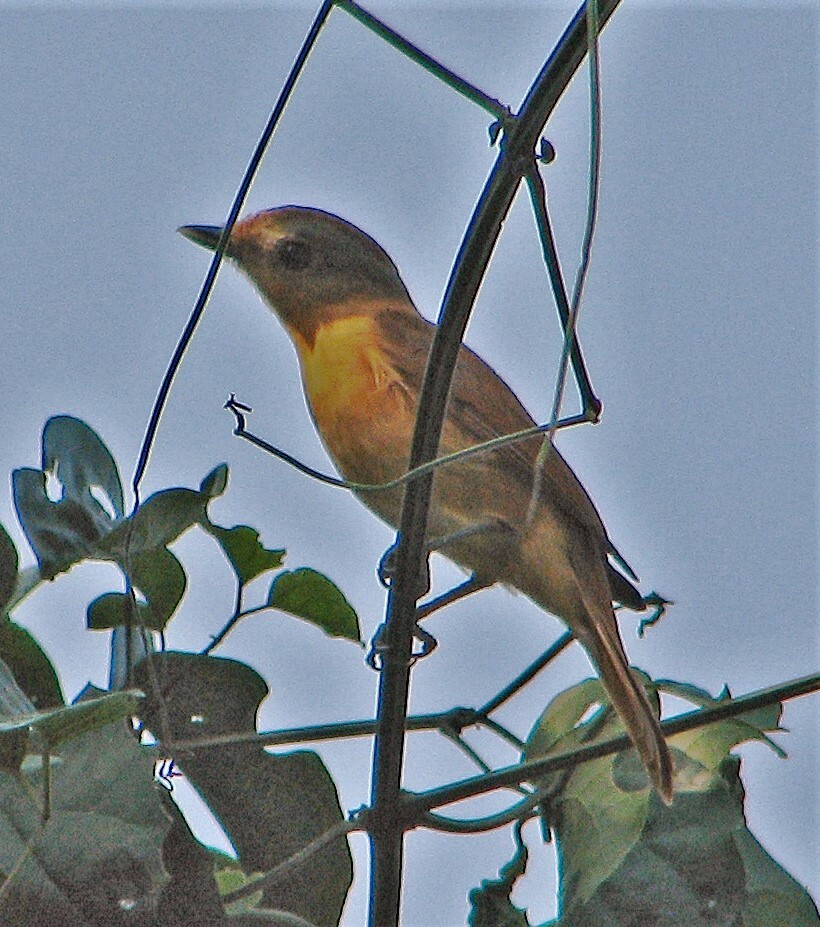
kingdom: Animalia
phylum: Chordata
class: Aves
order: Passeriformes
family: Cotingidae
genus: Pachyramphus
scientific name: Pachyramphus castaneus
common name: Chestnut-crowned becard
